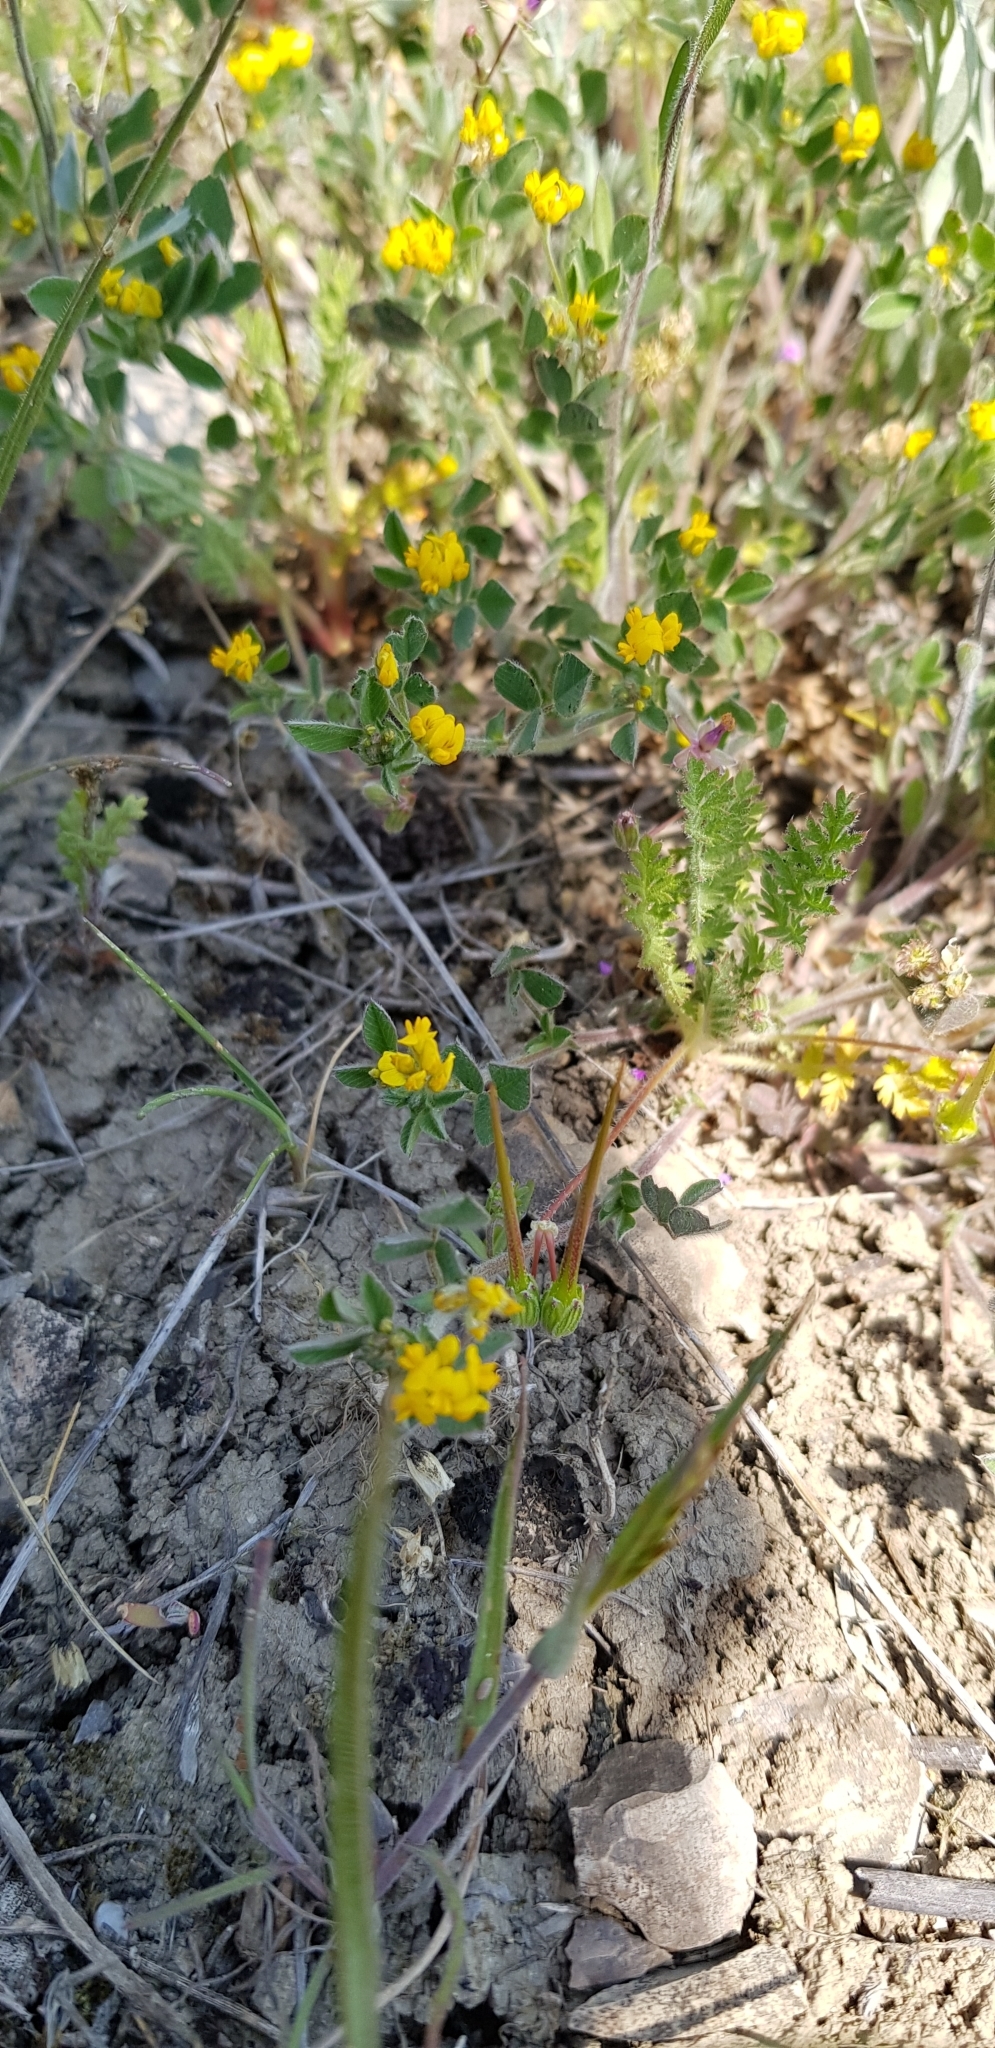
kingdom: Plantae
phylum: Tracheophyta
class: Magnoliopsida
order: Fabales
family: Fabaceae
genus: Medicago
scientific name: Medicago minima
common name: Little bur-clover
